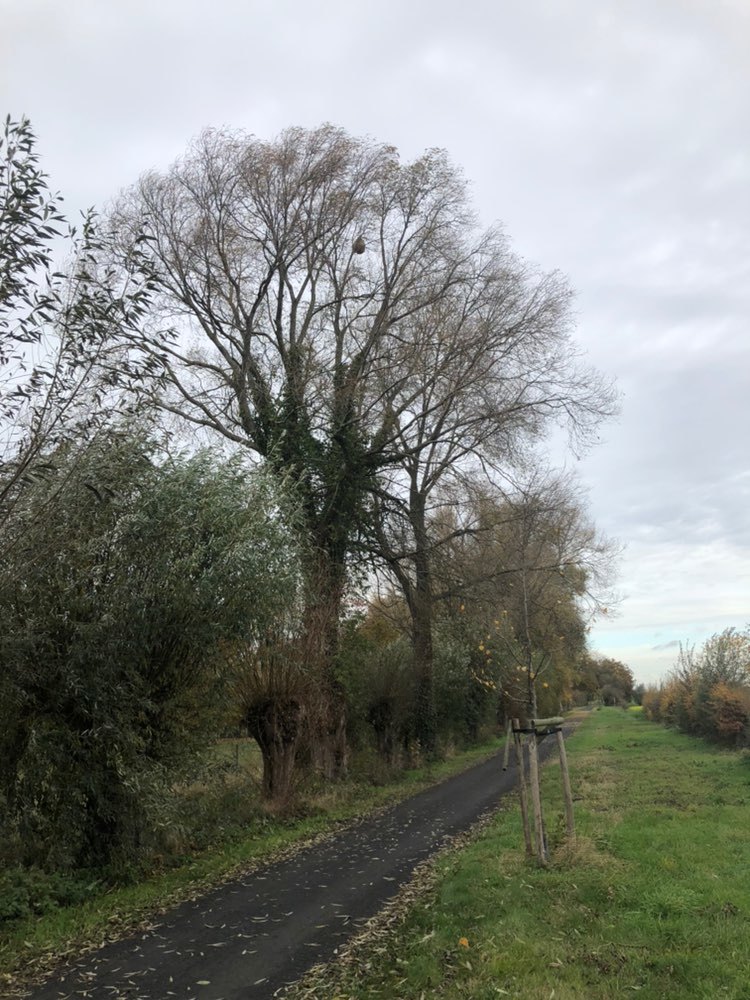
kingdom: Animalia
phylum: Arthropoda
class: Insecta
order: Hymenoptera
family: Vespidae
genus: Vespa
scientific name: Vespa velutina
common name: Asian hornet
